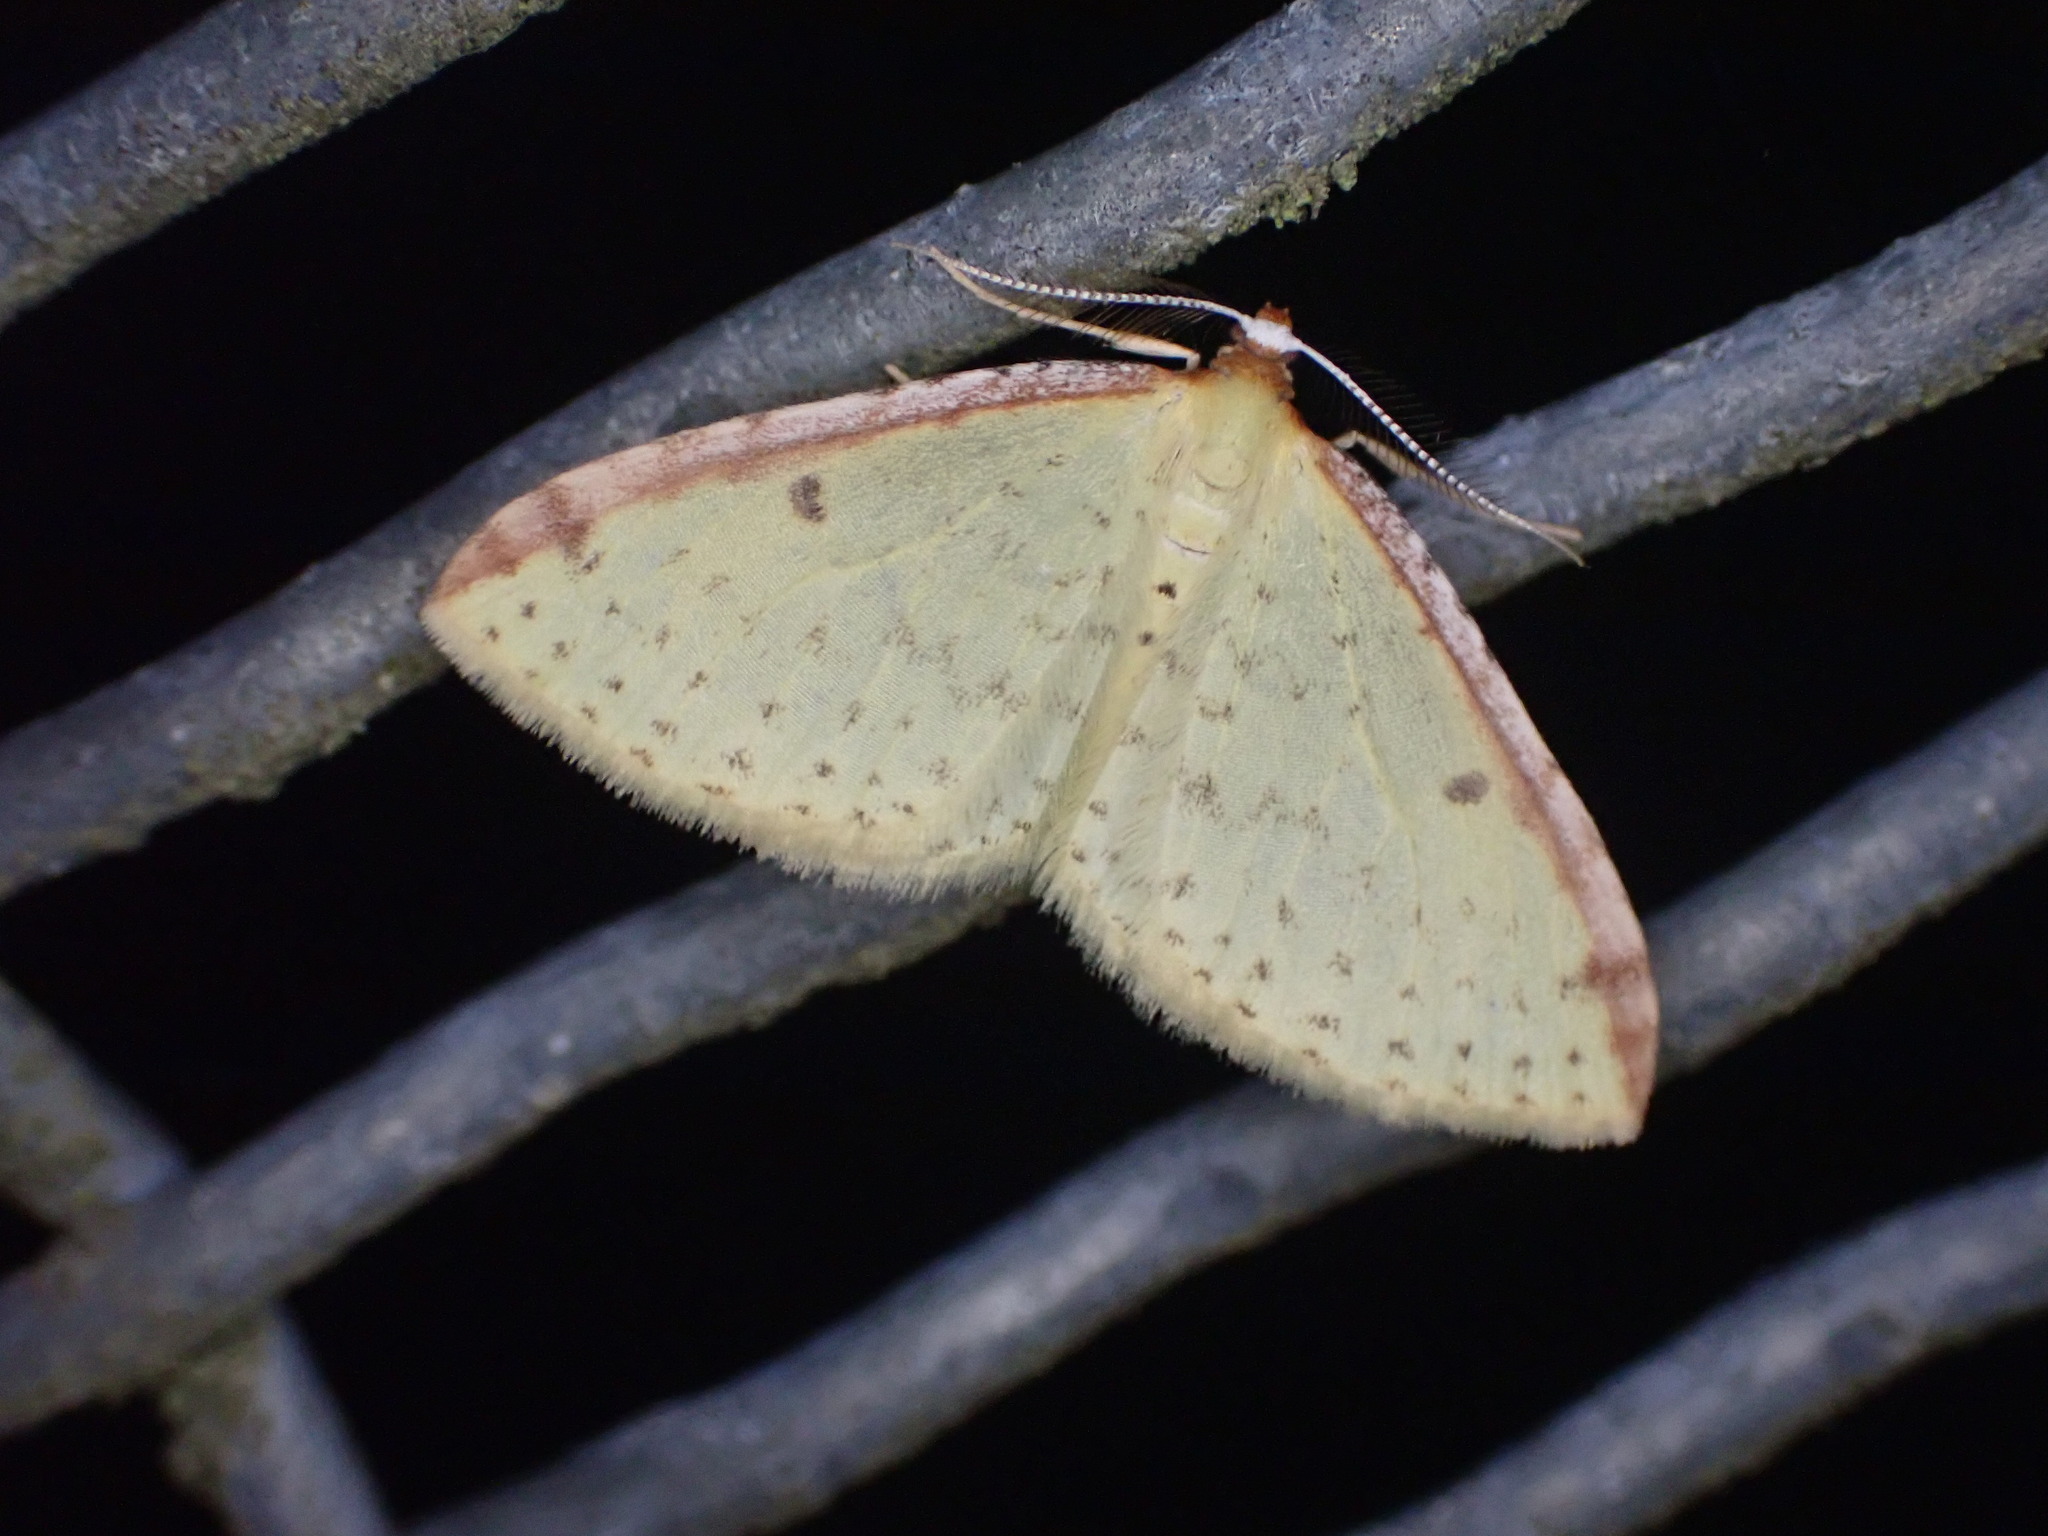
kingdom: Animalia
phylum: Arthropoda
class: Insecta
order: Lepidoptera
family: Geometridae
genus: Epiphryne
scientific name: Epiphryne undosata
